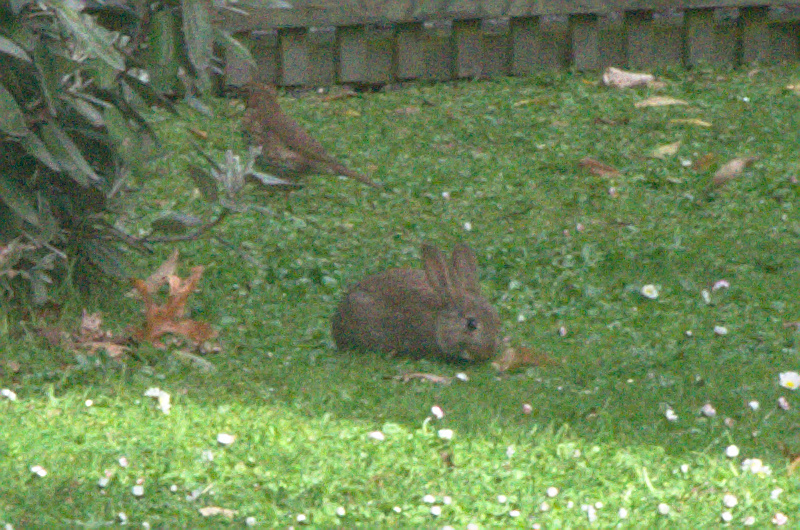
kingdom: Animalia
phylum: Chordata
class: Mammalia
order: Lagomorpha
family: Leporidae
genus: Oryctolagus
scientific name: Oryctolagus cuniculus
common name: European rabbit
